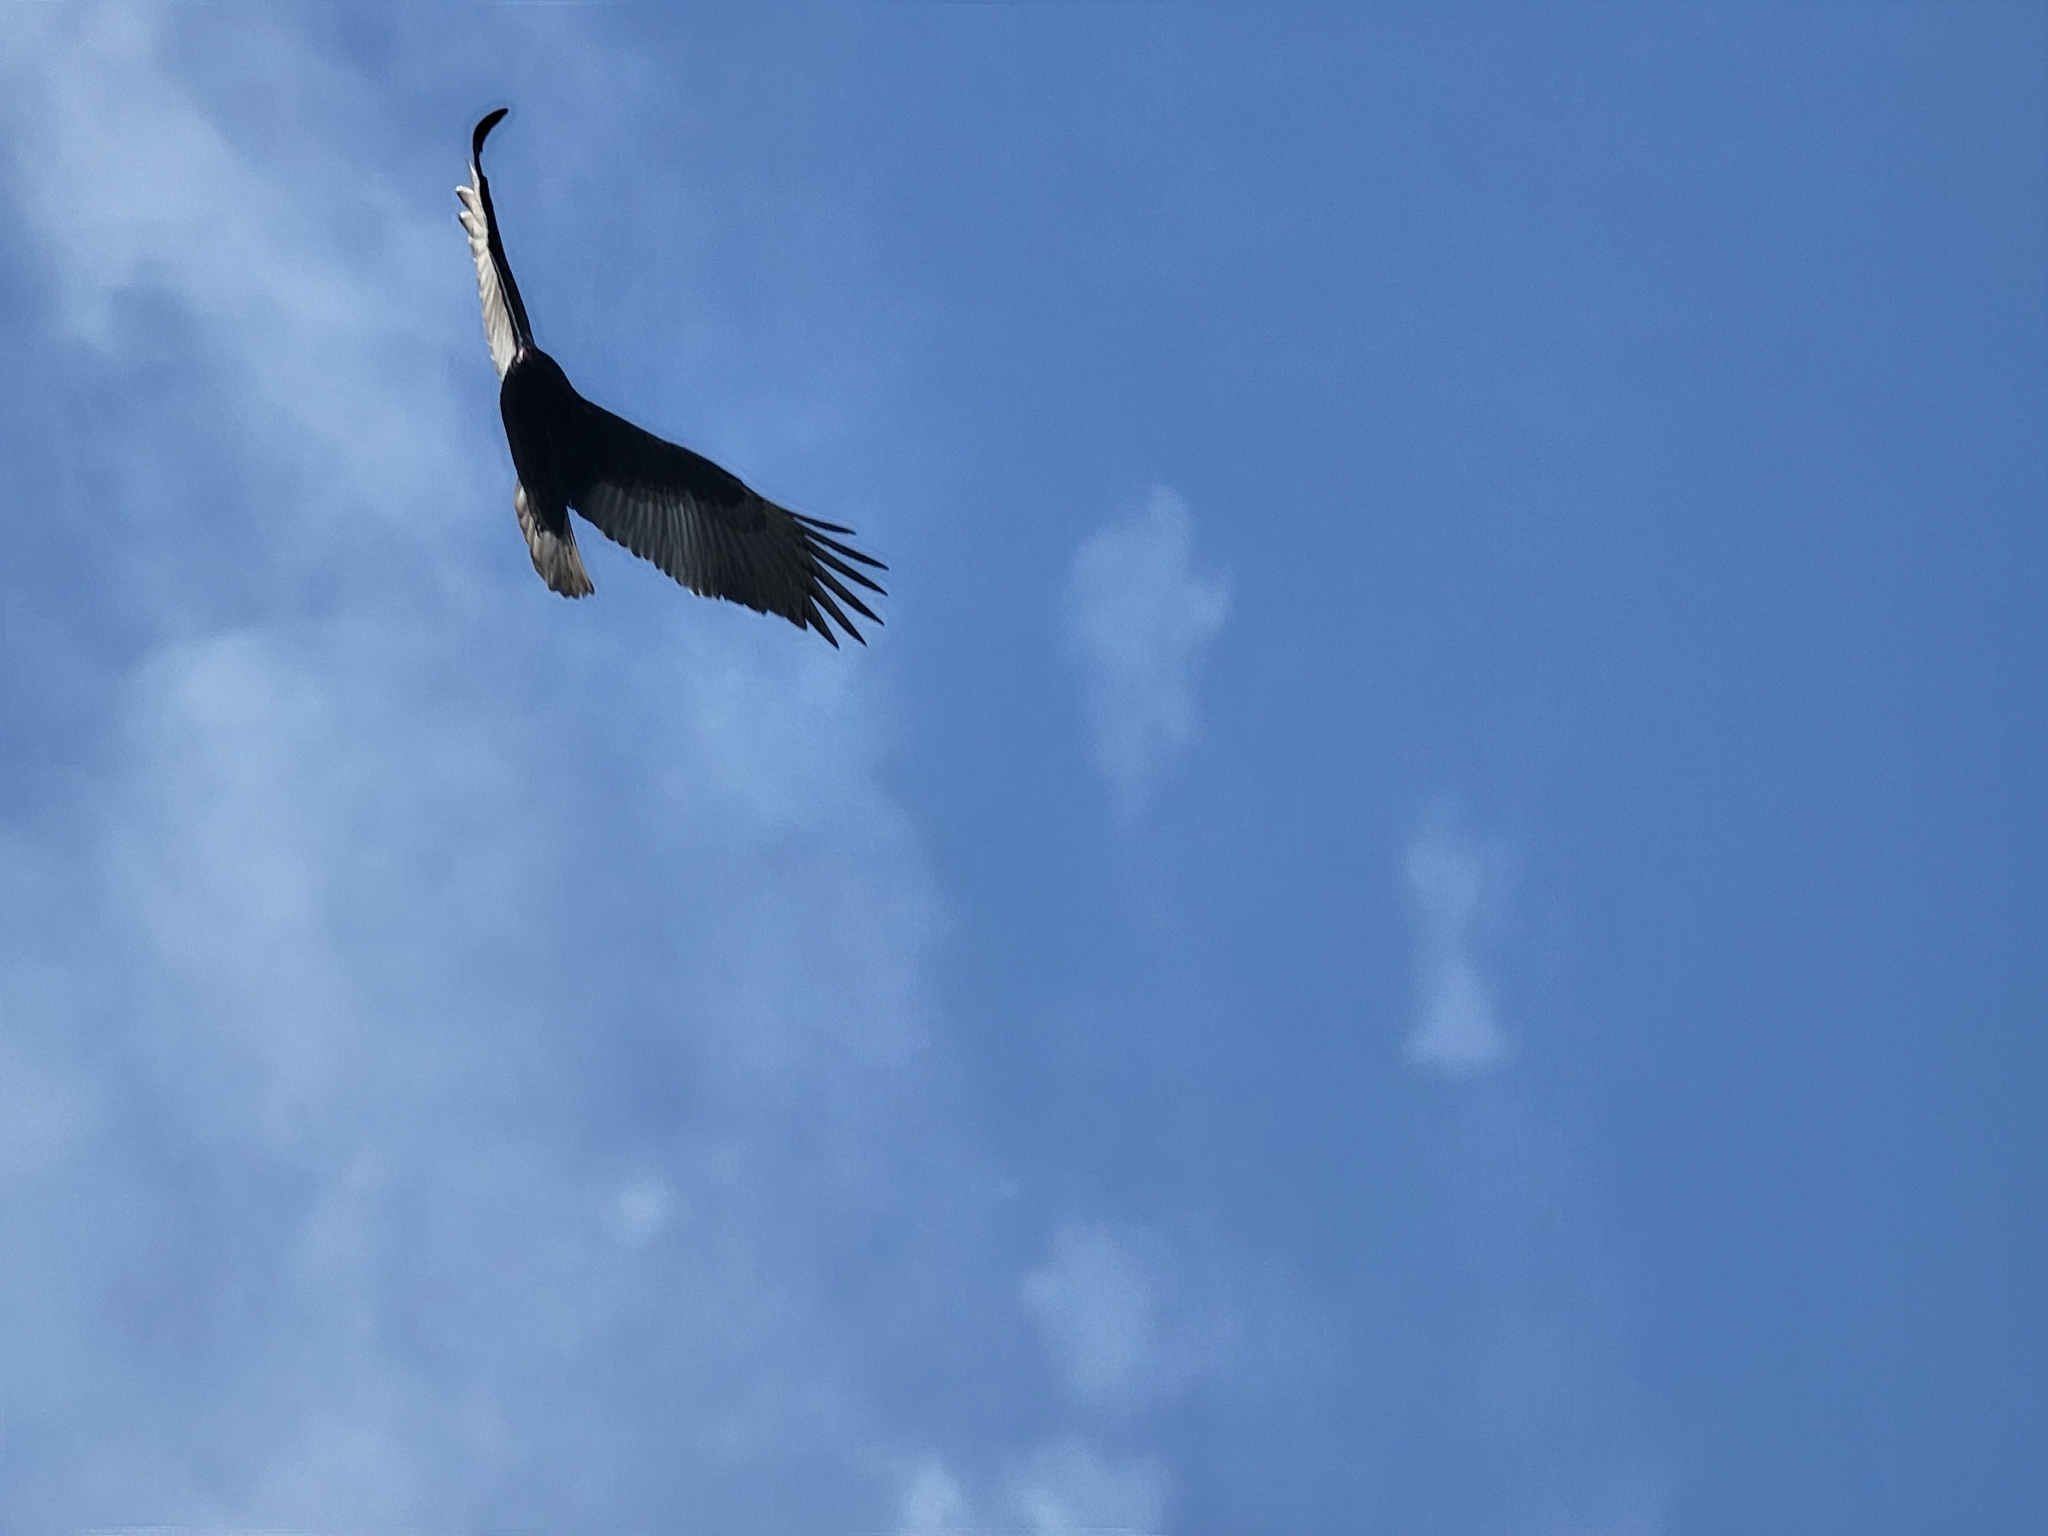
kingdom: Animalia
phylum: Chordata
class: Aves
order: Accipitriformes
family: Cathartidae
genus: Cathartes
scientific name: Cathartes aura
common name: Turkey vulture
